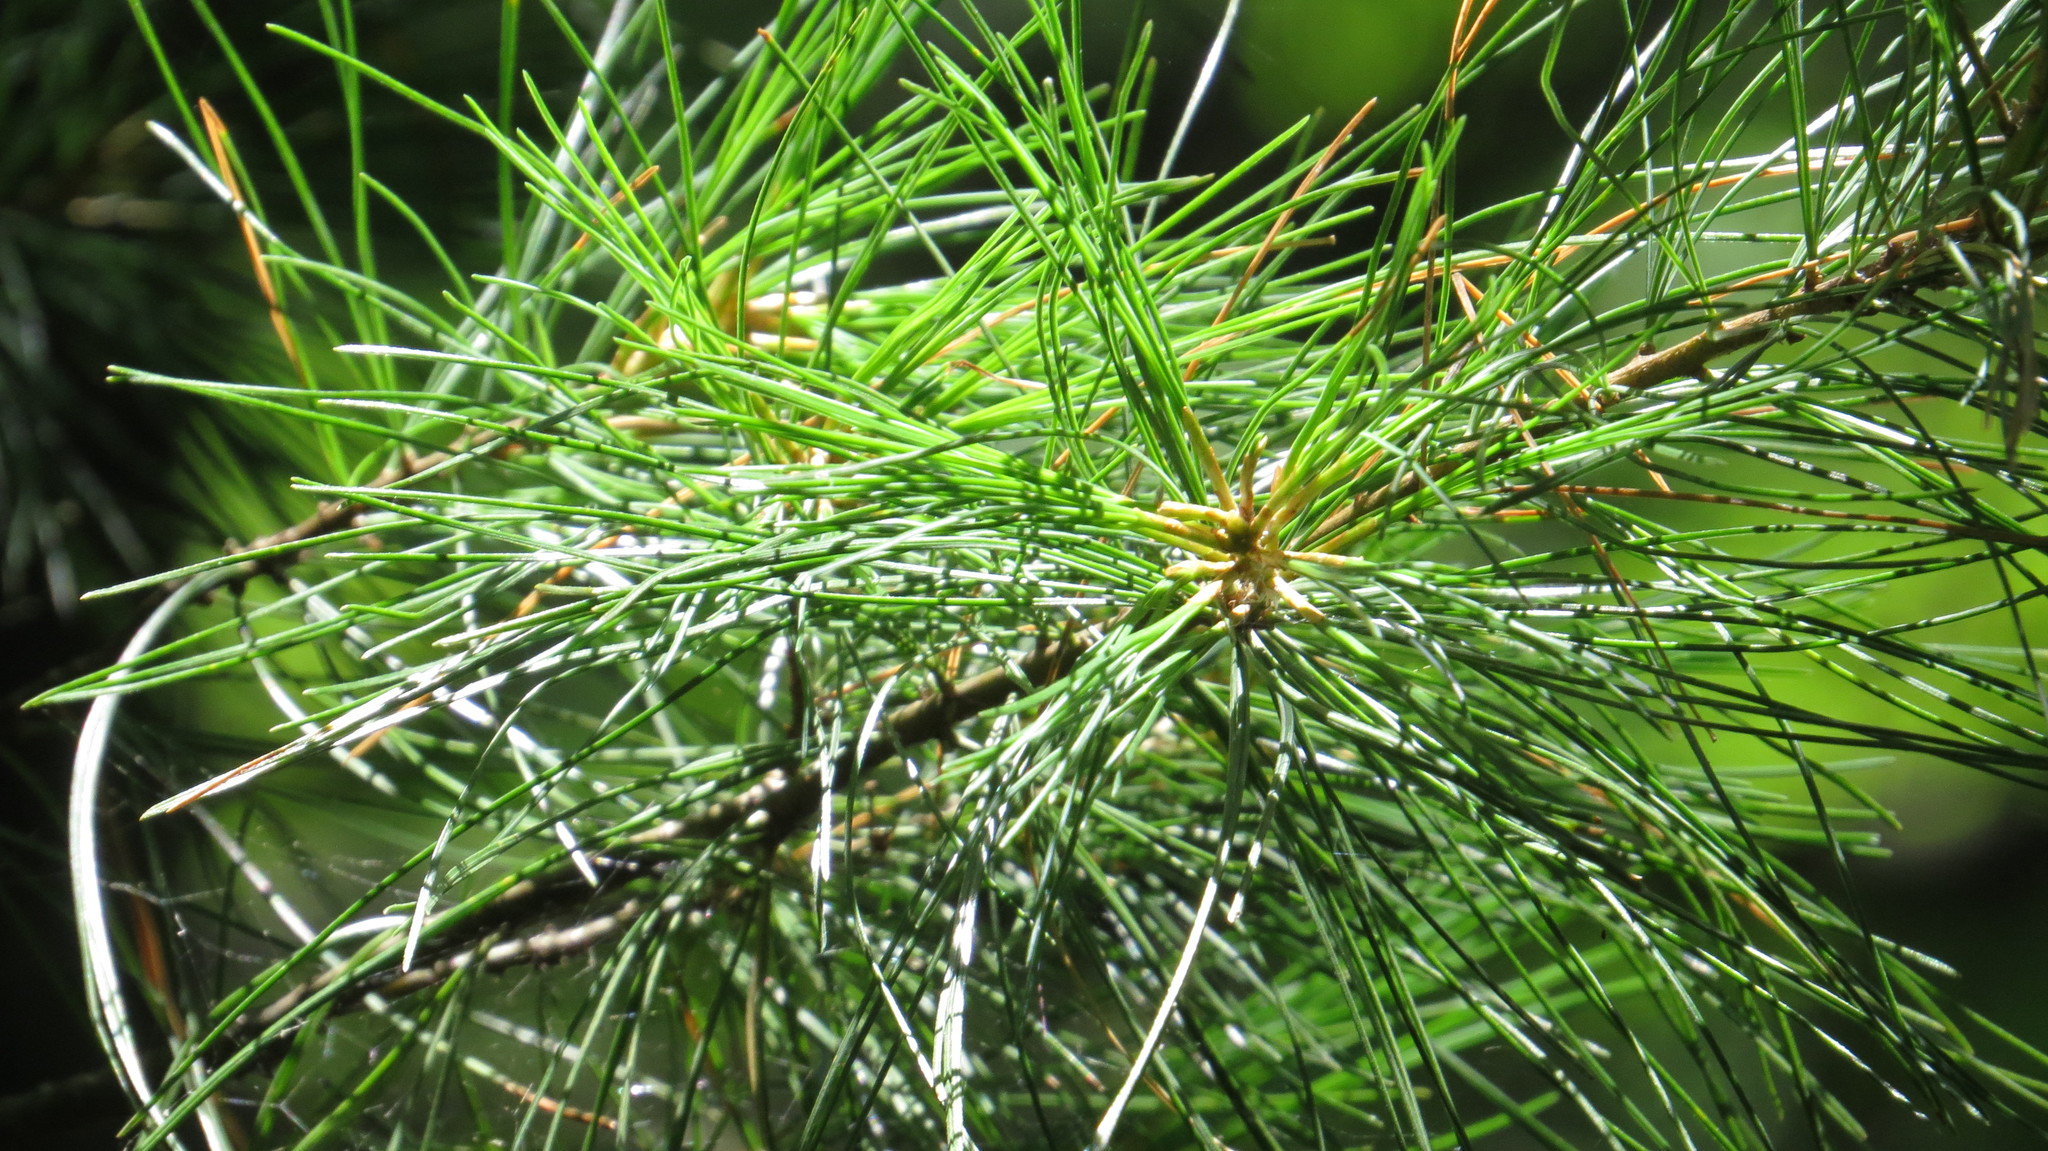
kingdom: Plantae
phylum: Tracheophyta
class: Pinopsida
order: Pinales
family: Pinaceae
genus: Pinus
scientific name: Pinus strobus
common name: Weymouth pine
